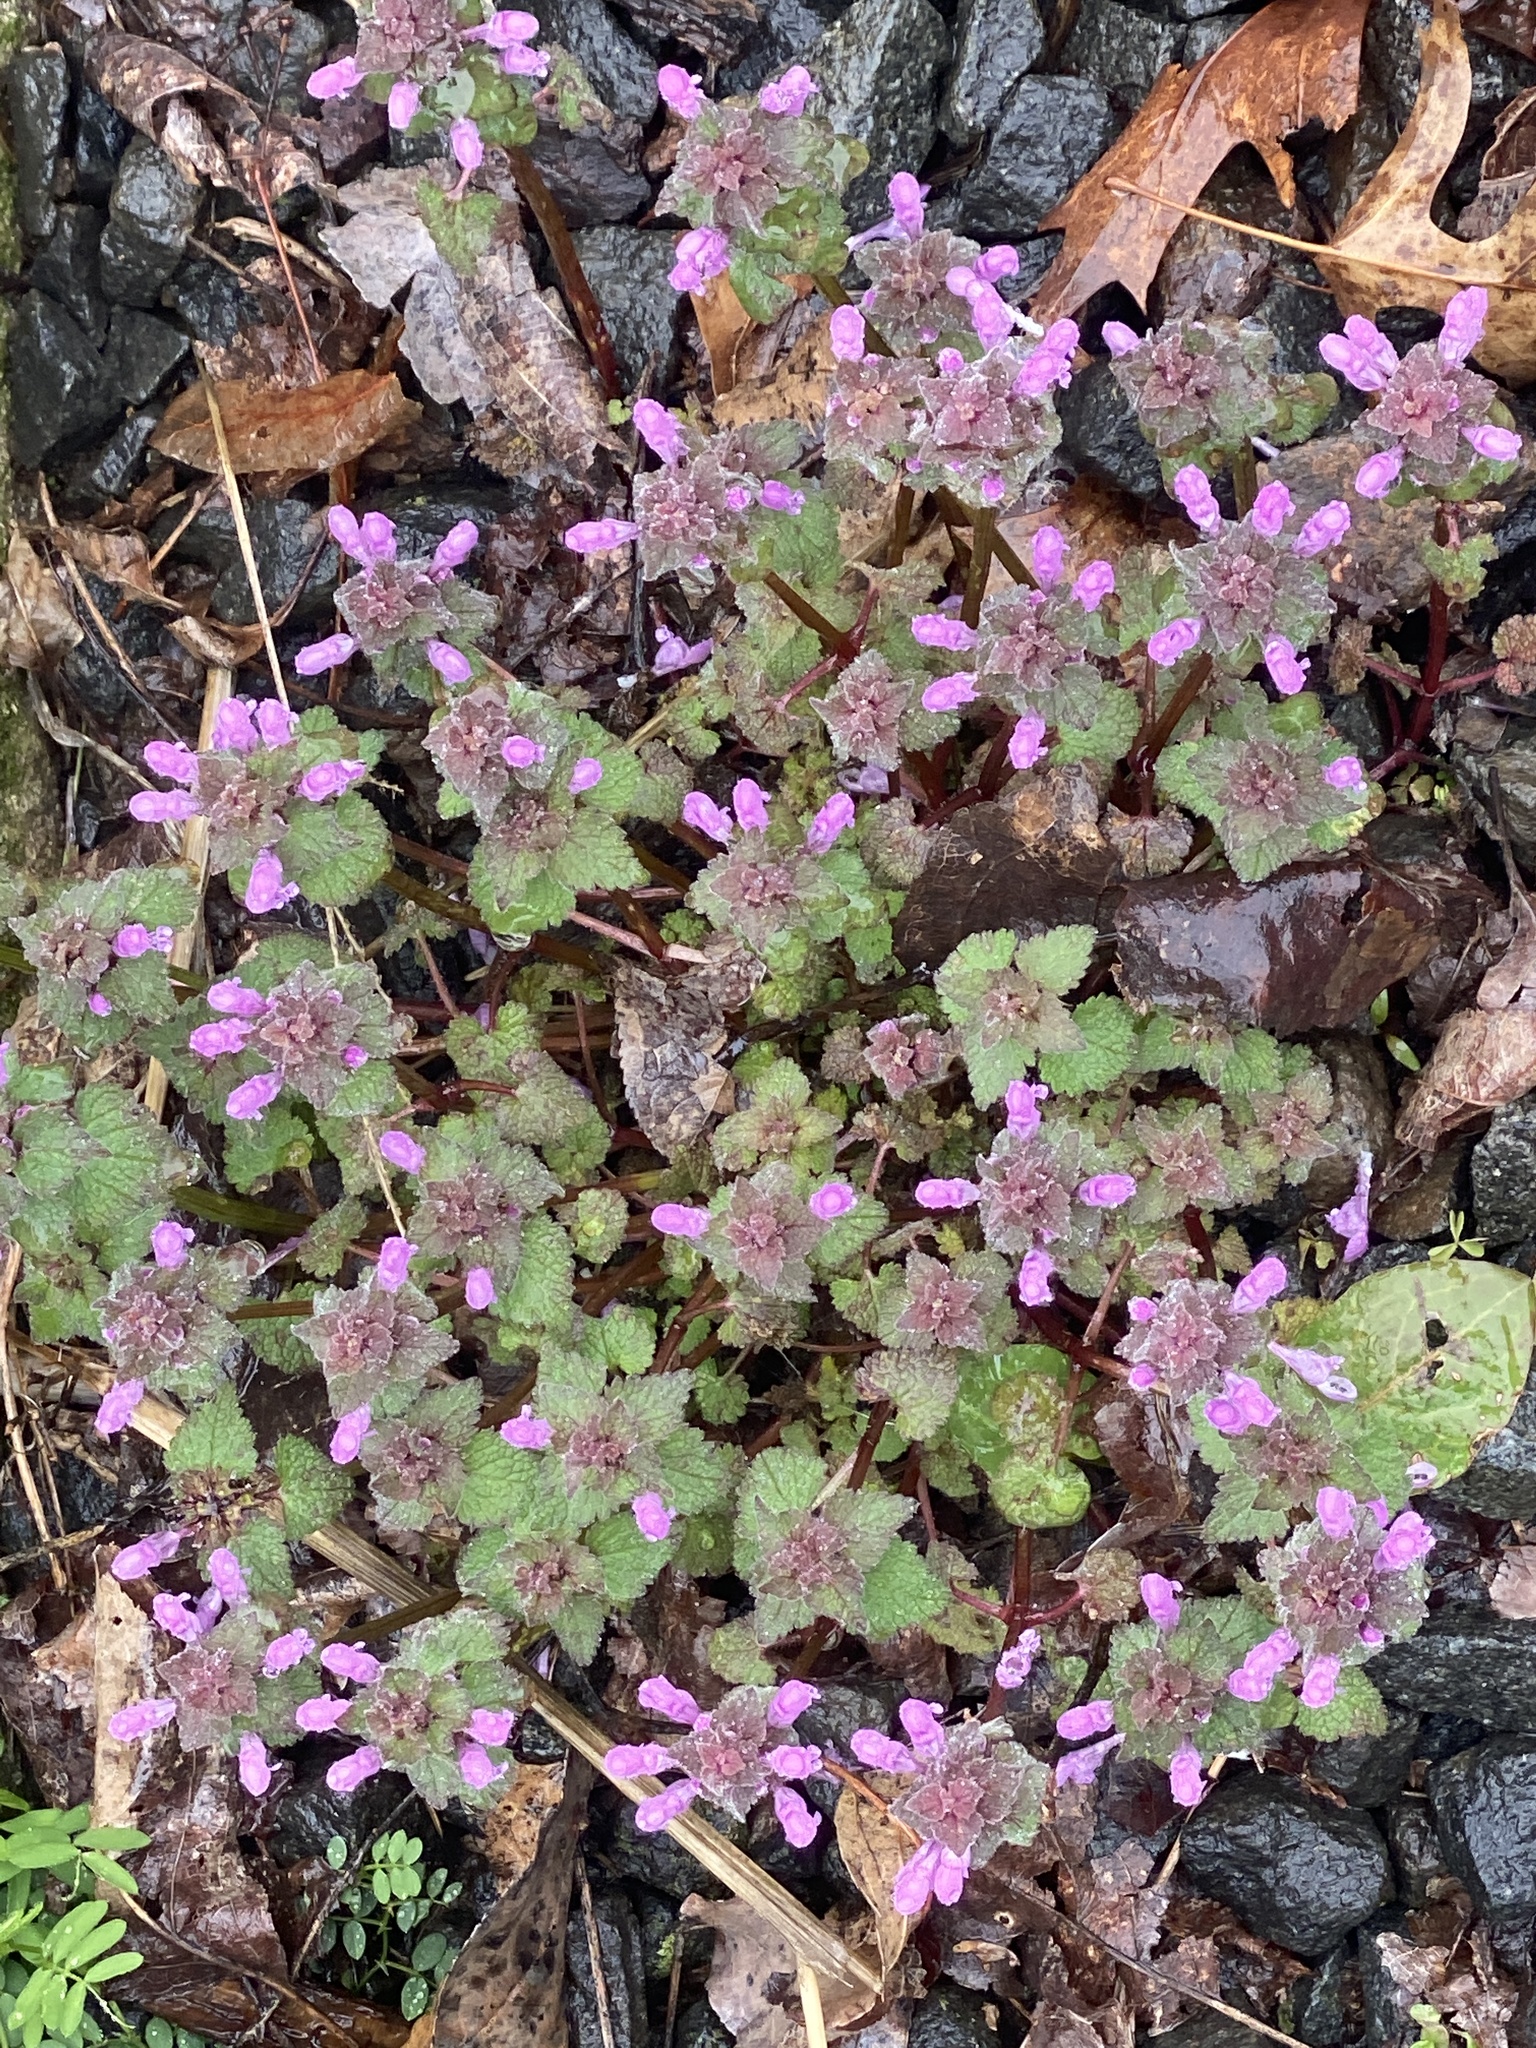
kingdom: Plantae
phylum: Tracheophyta
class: Magnoliopsida
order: Lamiales
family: Lamiaceae
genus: Lamium
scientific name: Lamium purpureum
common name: Red dead-nettle
